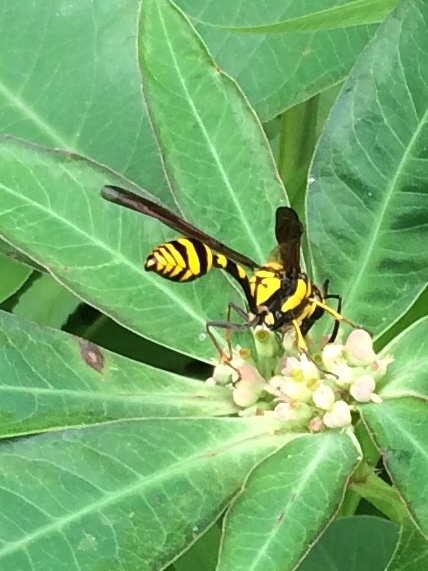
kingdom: Animalia
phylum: Arthropoda
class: Insecta
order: Hymenoptera
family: Eumenidae
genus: Phimenes
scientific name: Phimenes flavopictus
